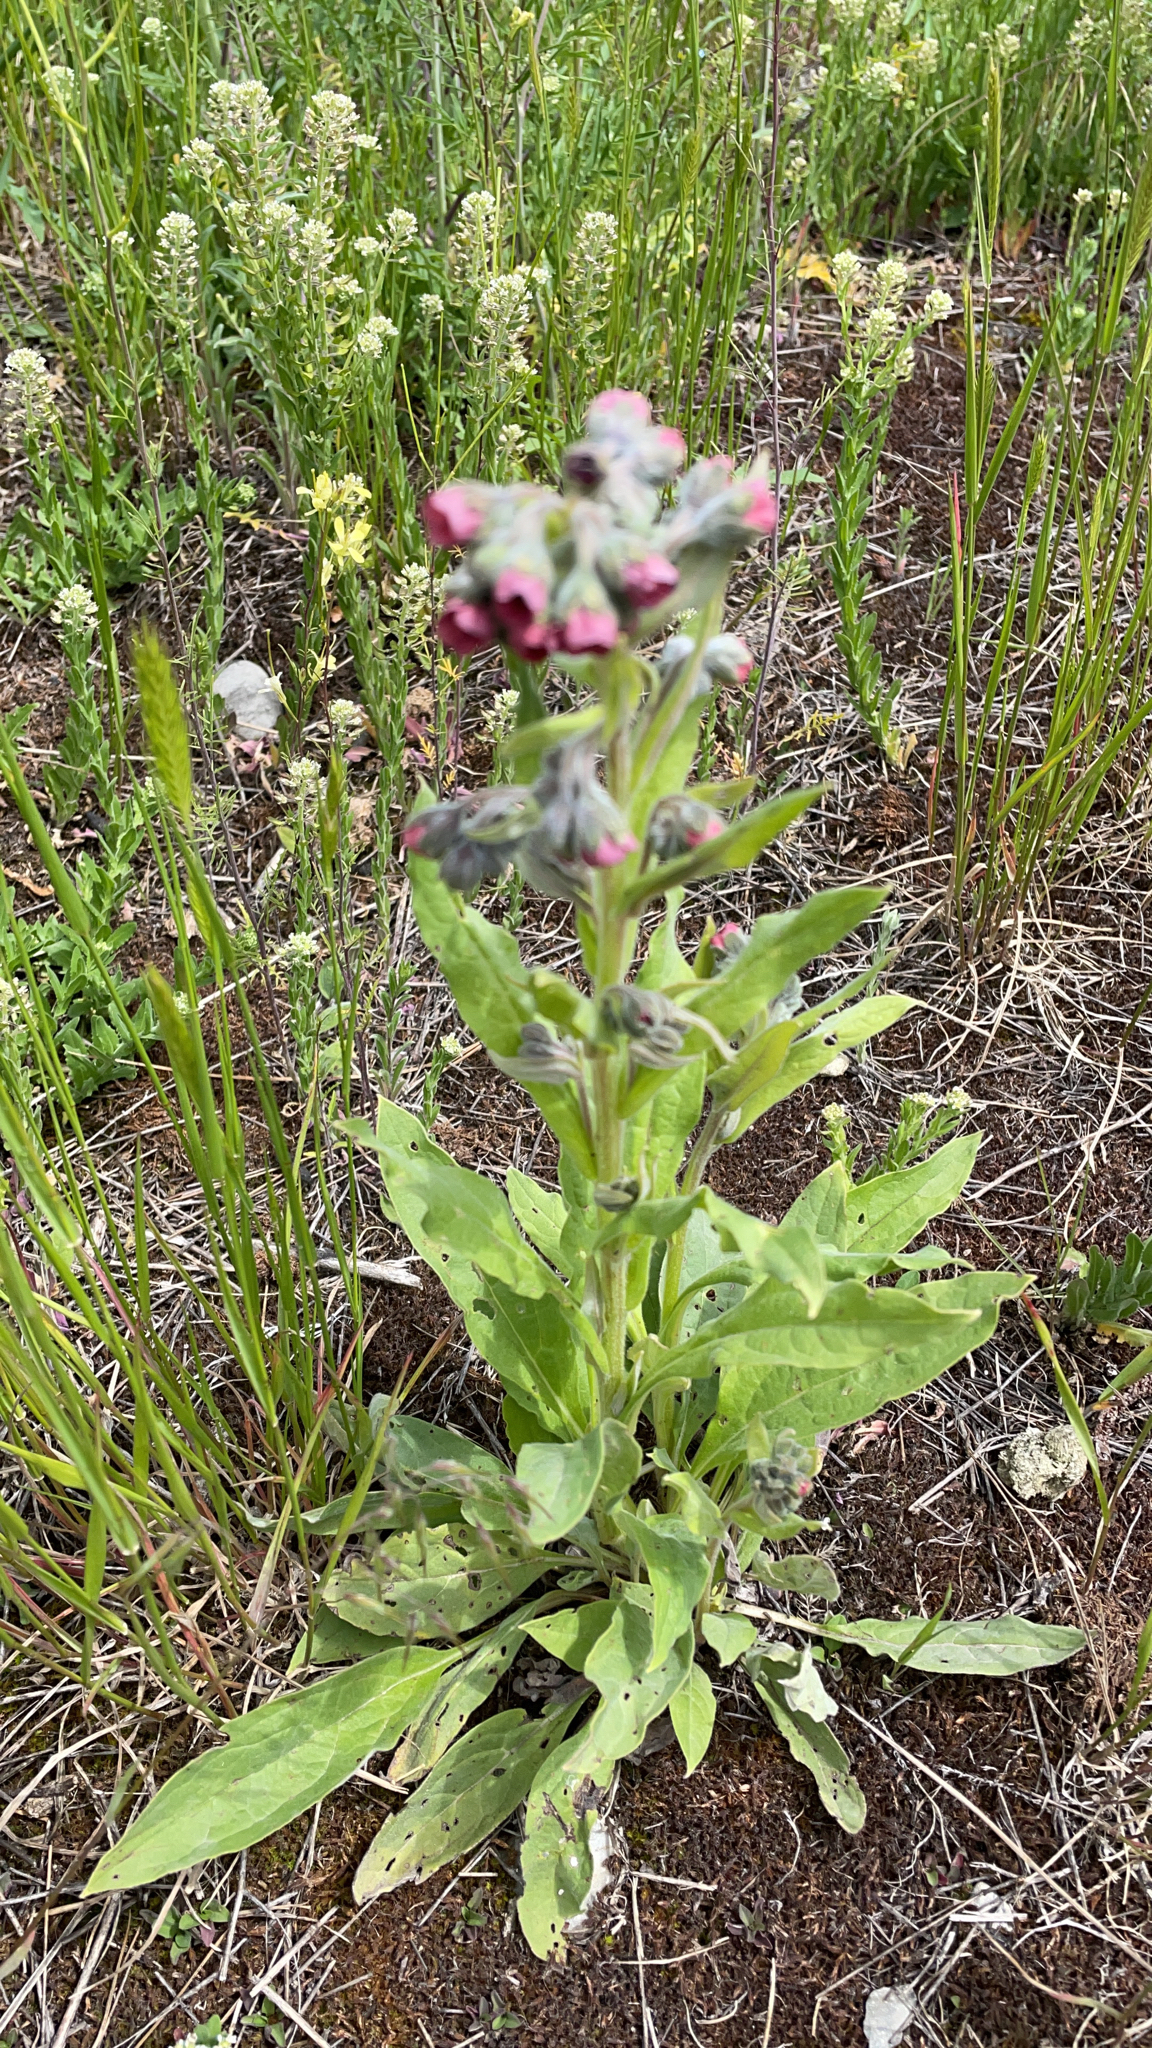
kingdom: Plantae
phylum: Tracheophyta
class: Magnoliopsida
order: Boraginales
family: Boraginaceae
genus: Cynoglossum
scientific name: Cynoglossum officinale
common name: Hound's-tongue
